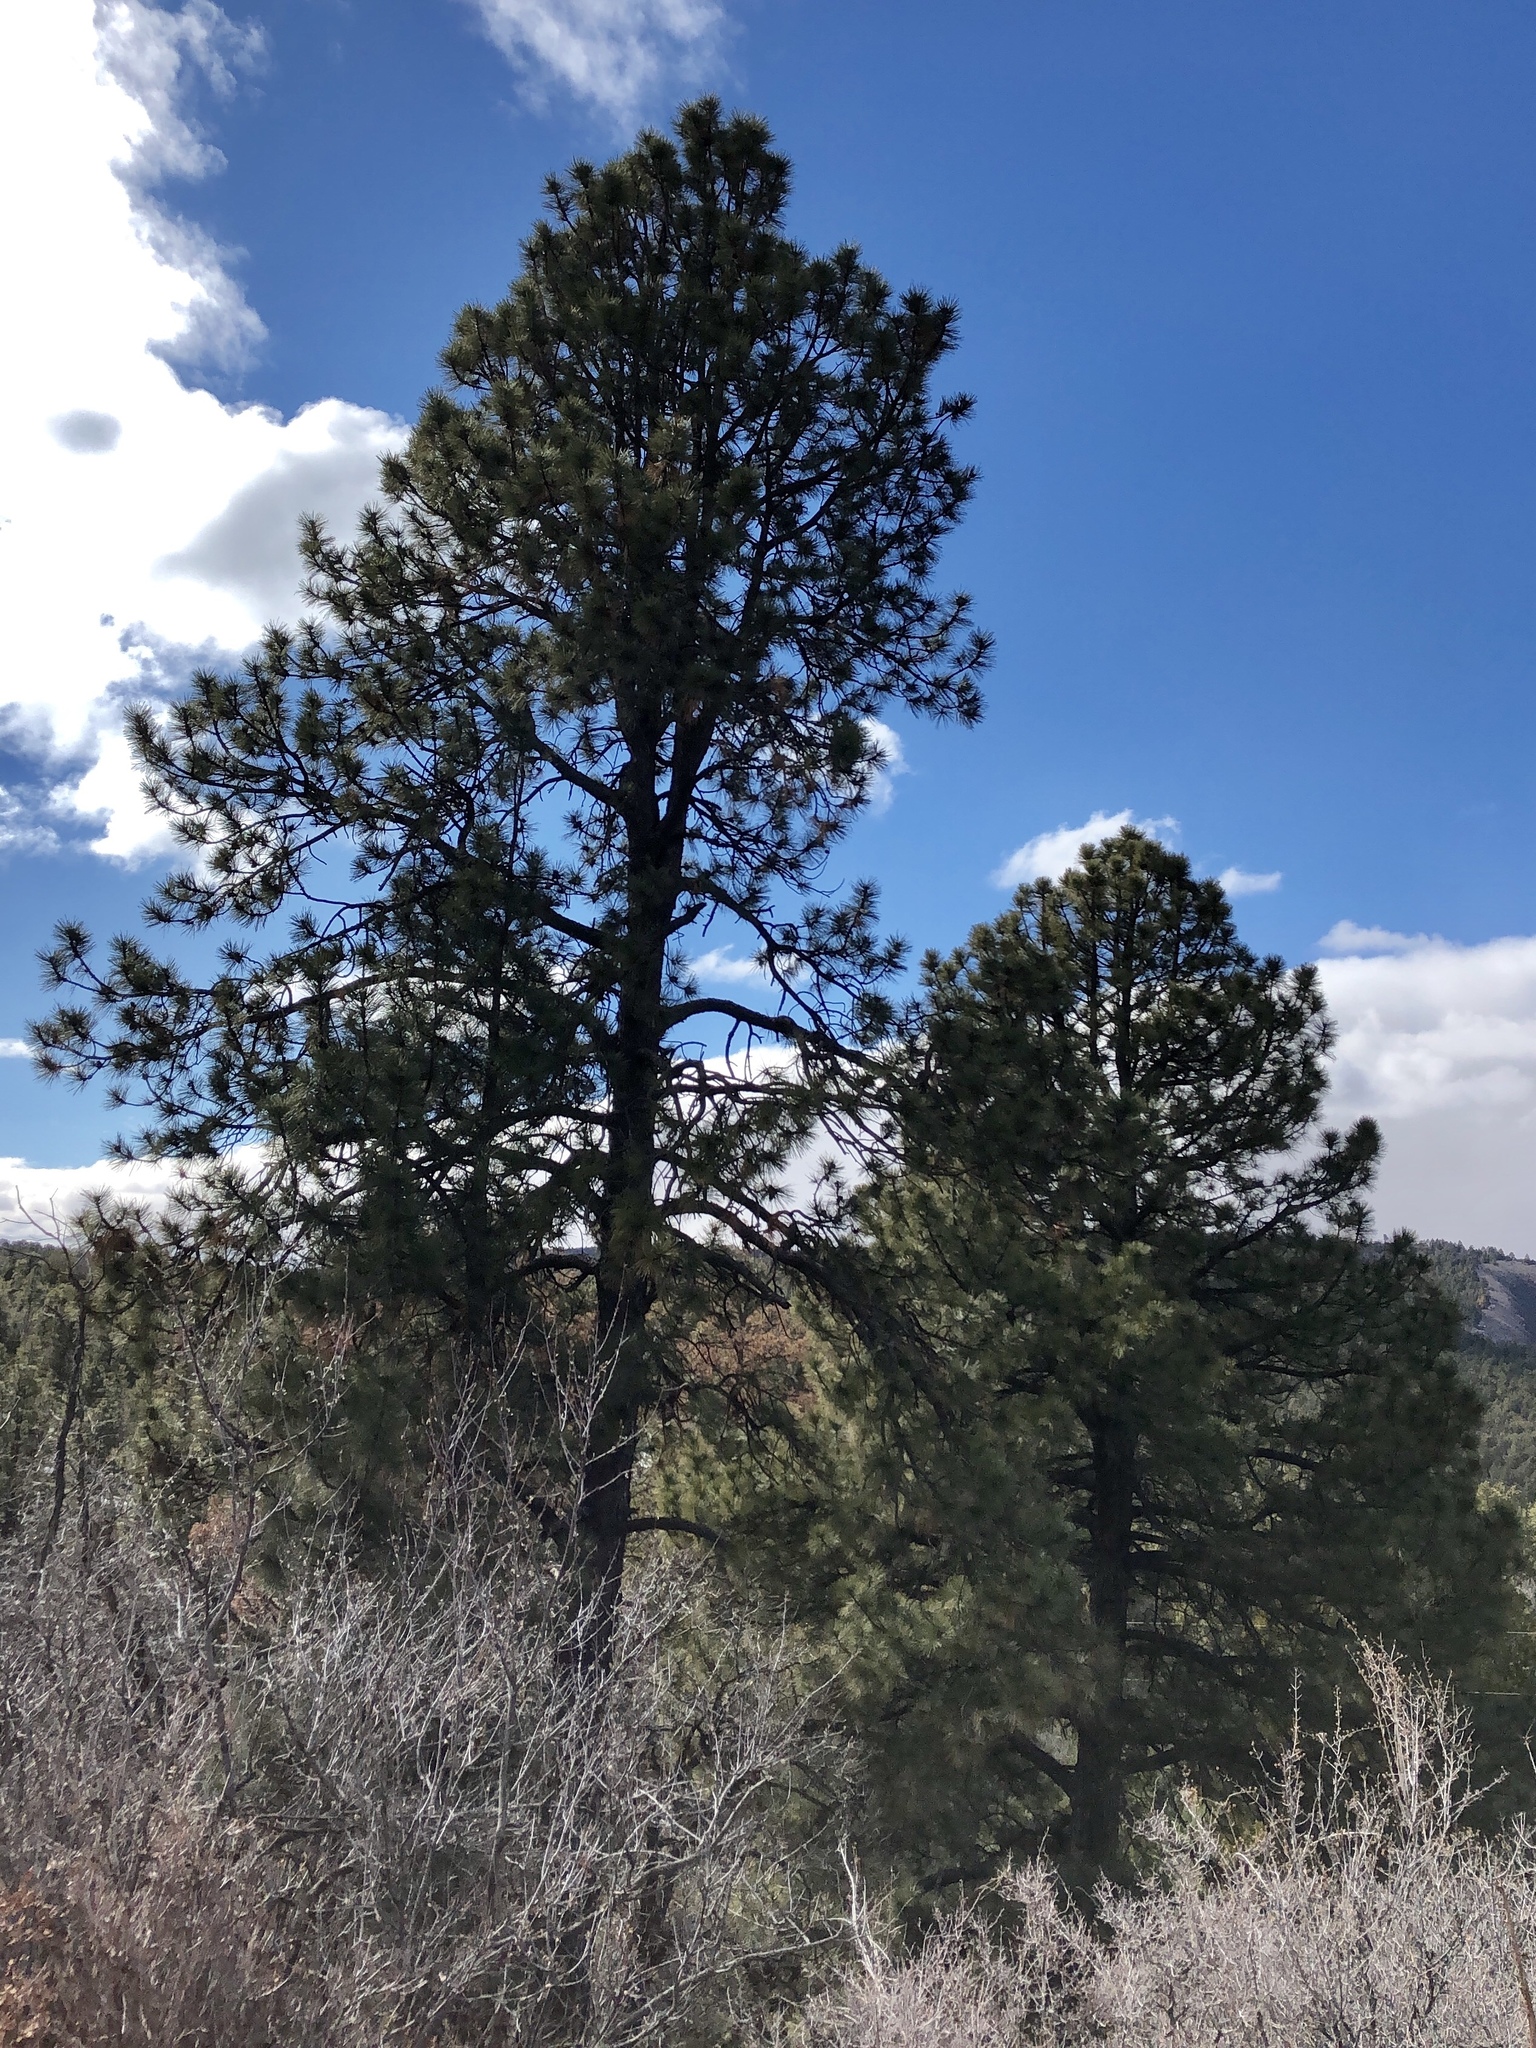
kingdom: Plantae
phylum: Tracheophyta
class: Pinopsida
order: Pinales
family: Pinaceae
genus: Pinus
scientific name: Pinus ponderosa
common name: Western yellow-pine
